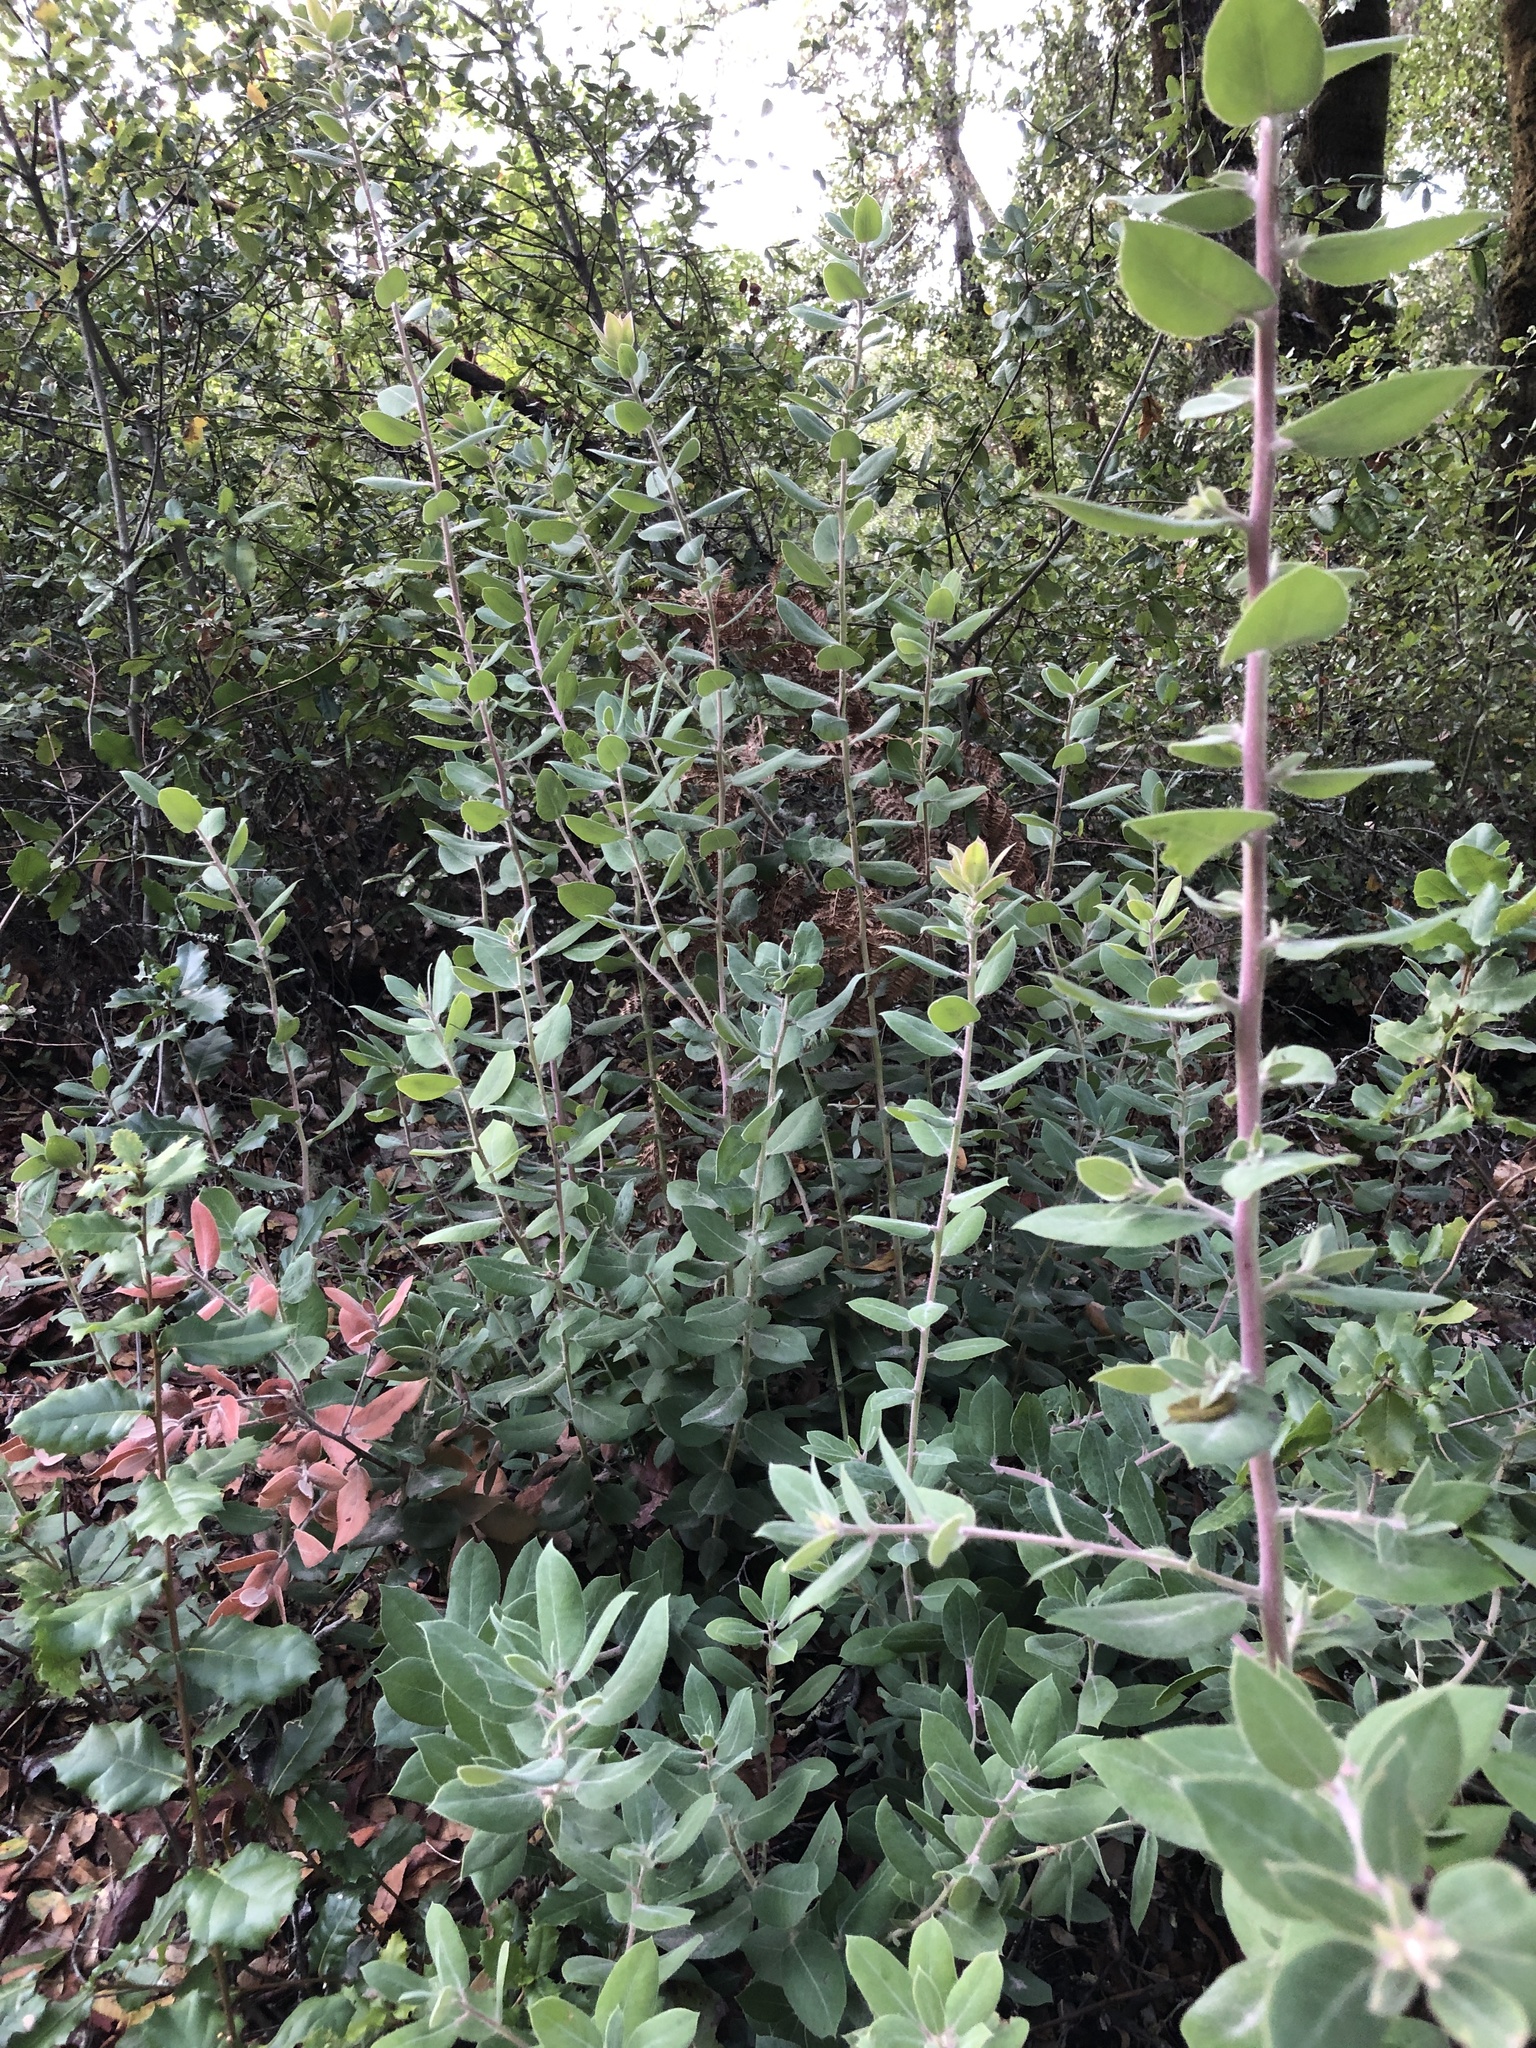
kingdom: Plantae
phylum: Tracheophyta
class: Magnoliopsida
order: Ericales
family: Ericaceae
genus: Arctostaphylos
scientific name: Arctostaphylos crustacea
